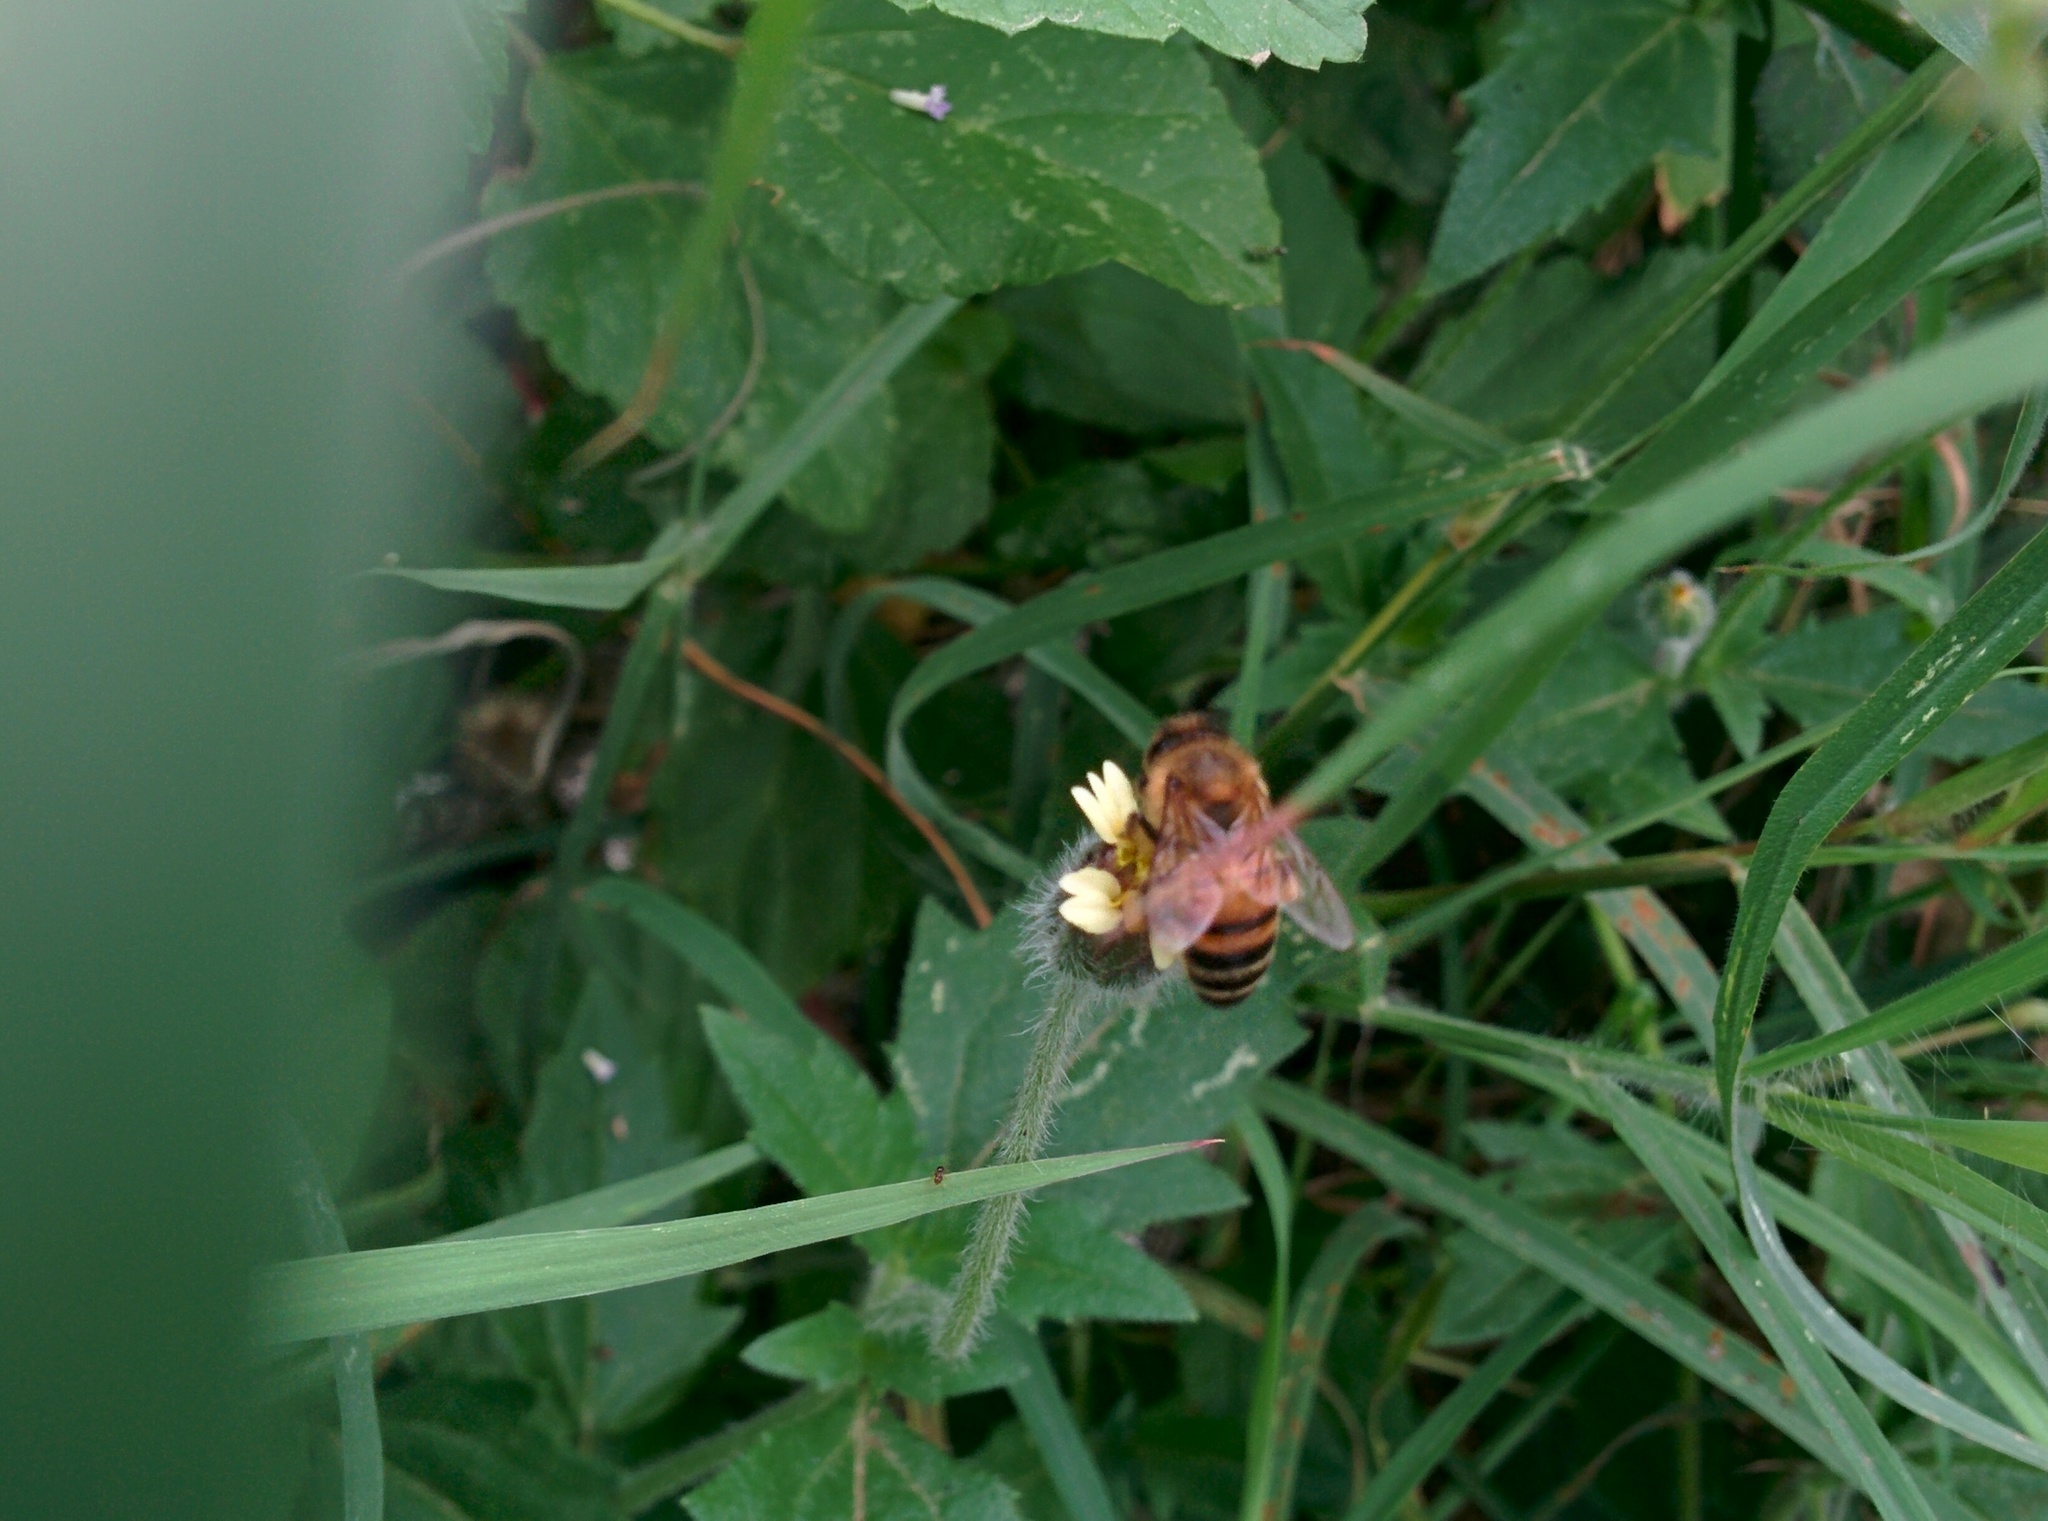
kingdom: Animalia
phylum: Arthropoda
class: Insecta
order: Hymenoptera
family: Apidae
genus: Apis
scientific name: Apis mellifera
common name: Honey bee
